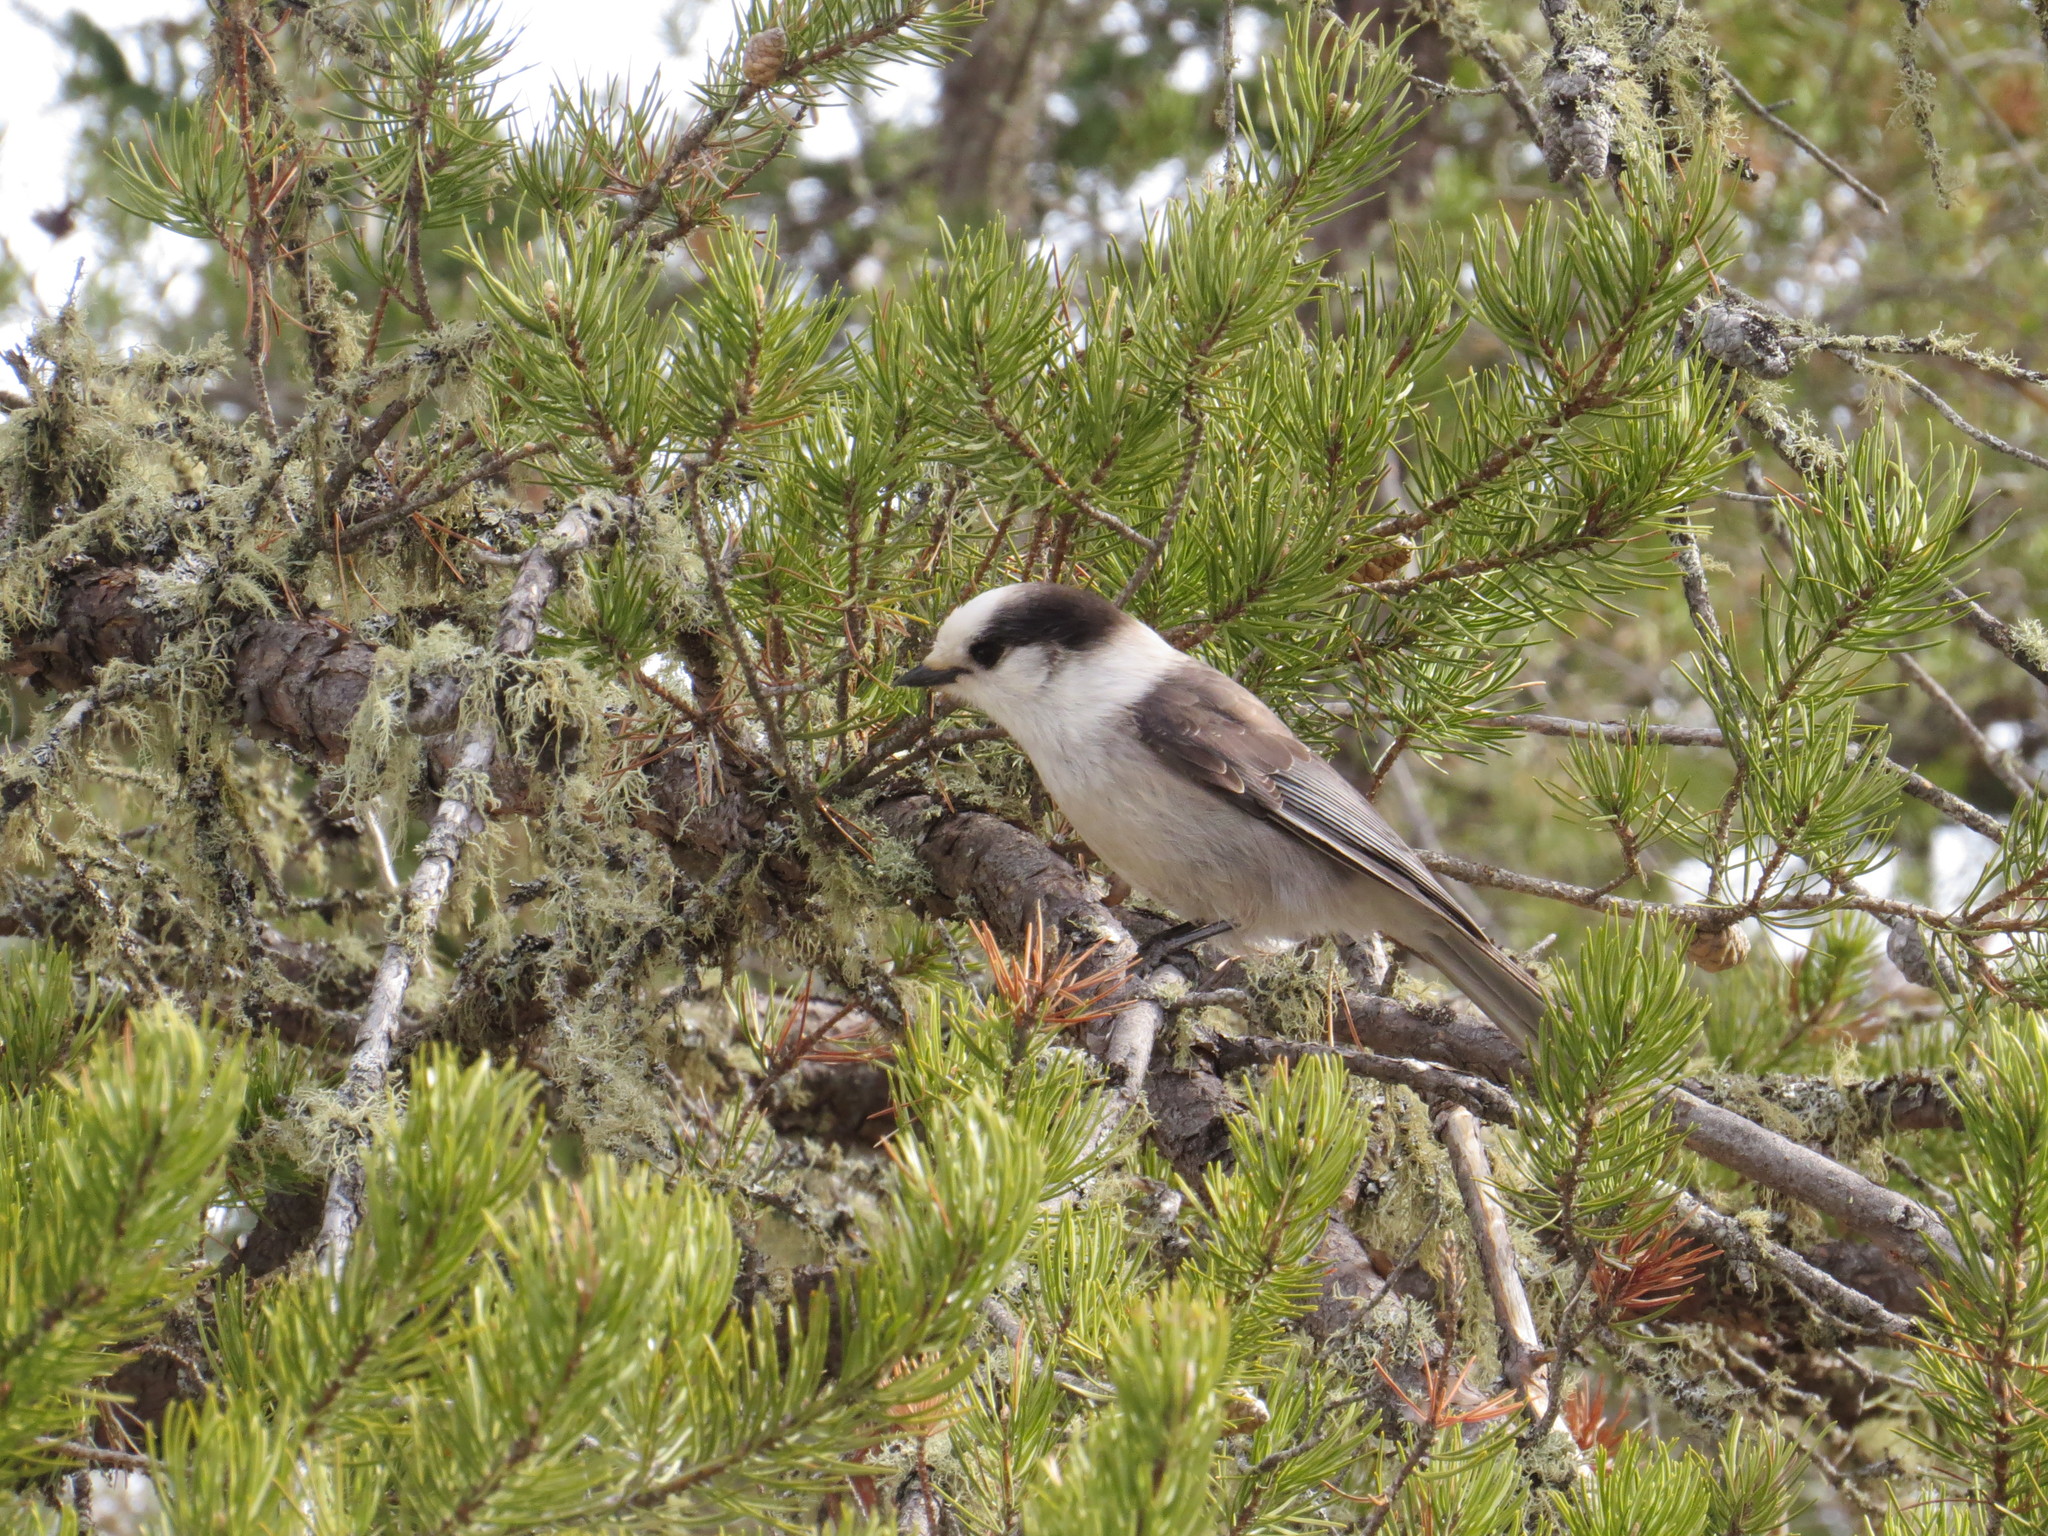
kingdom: Animalia
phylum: Chordata
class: Aves
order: Passeriformes
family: Corvidae
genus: Perisoreus
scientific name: Perisoreus canadensis
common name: Gray jay
